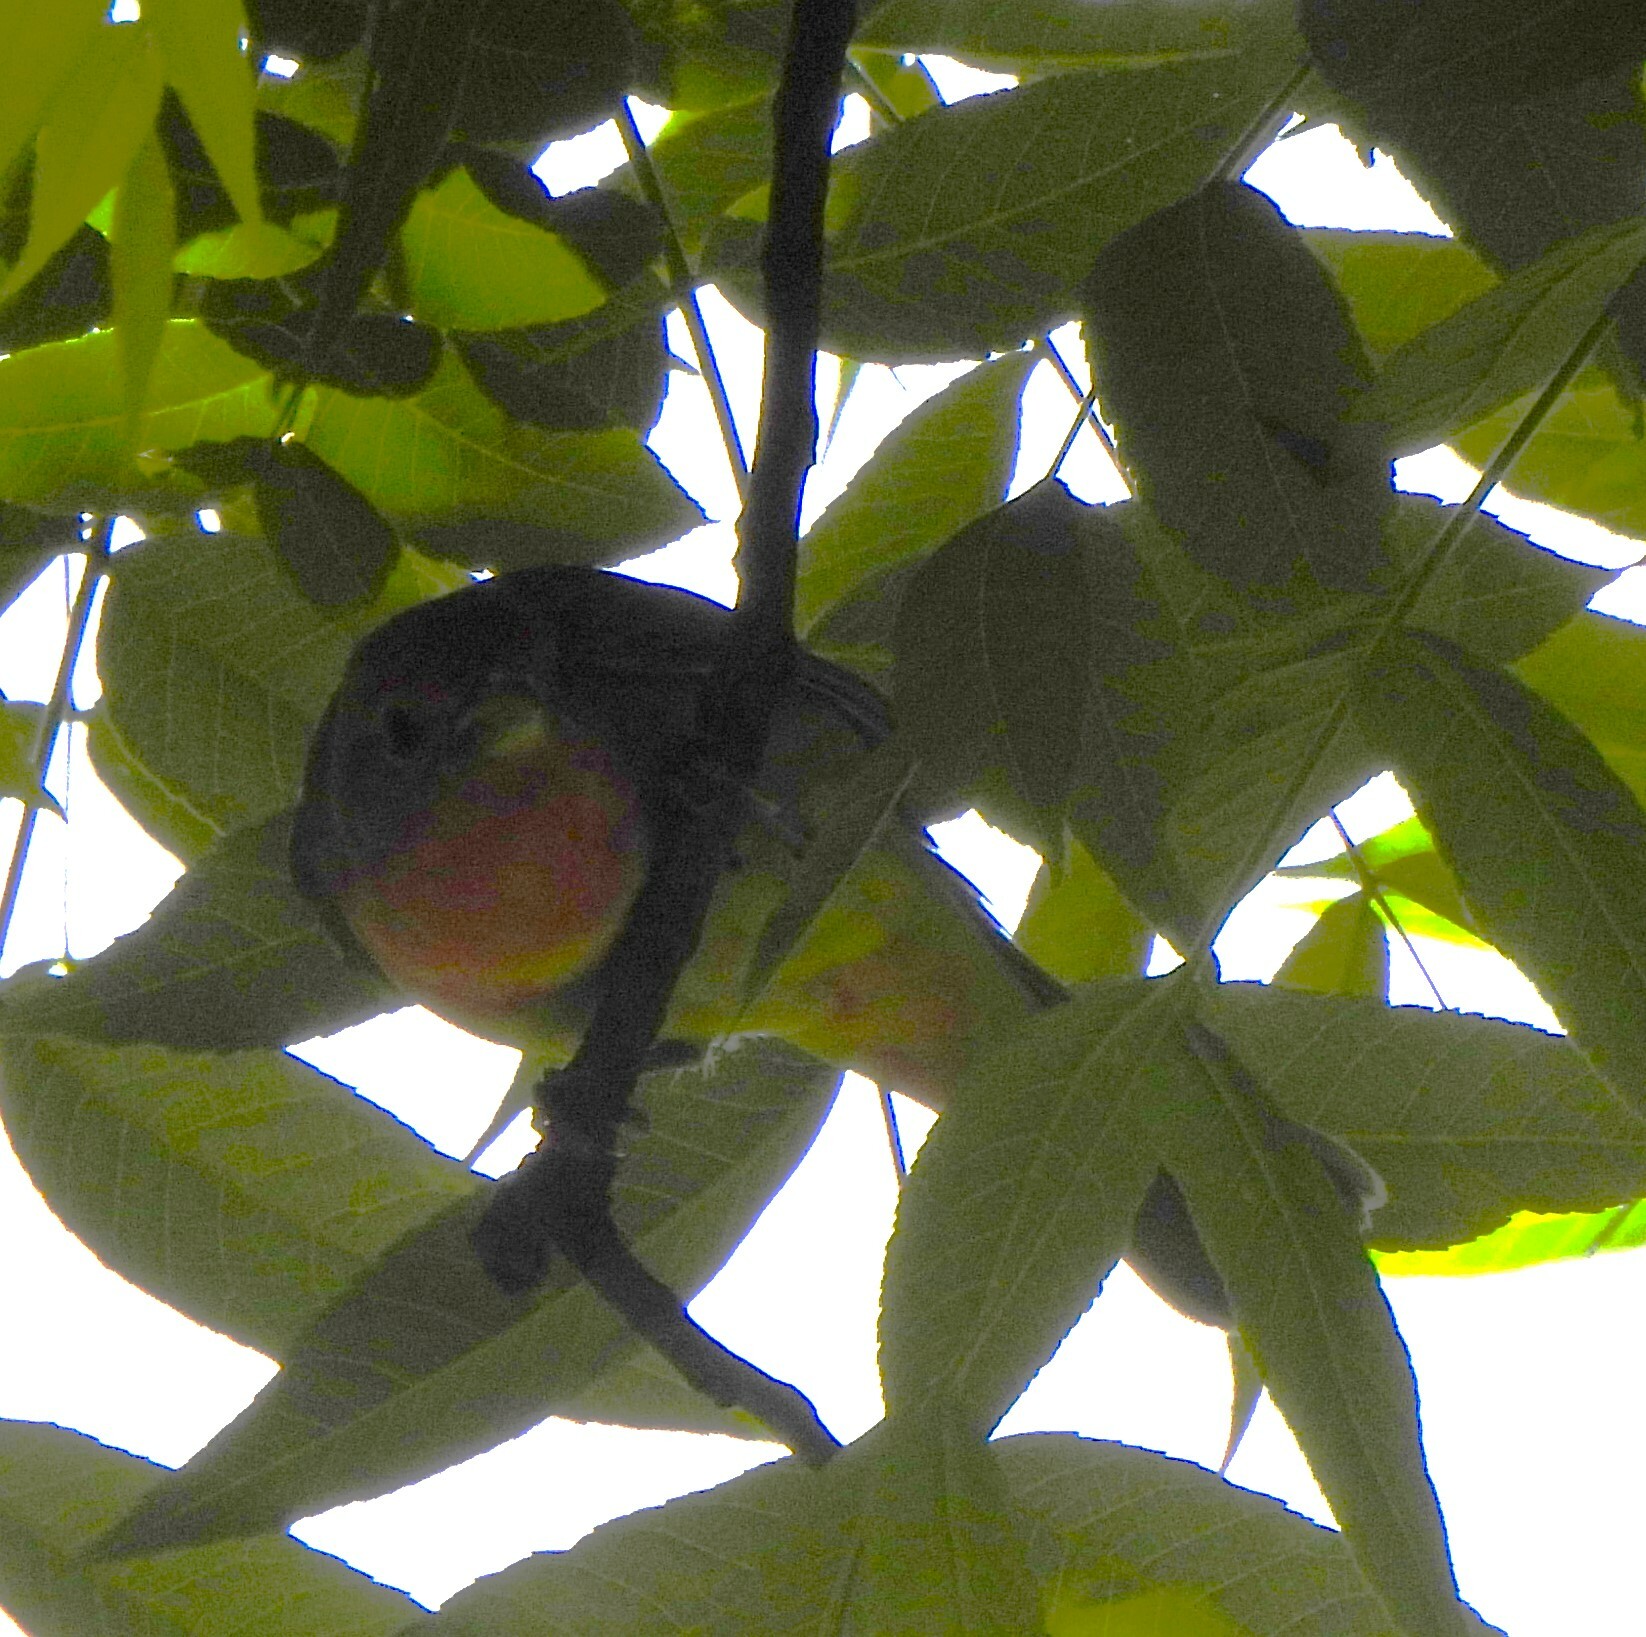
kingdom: Animalia
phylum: Chordata
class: Aves
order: Passeriformes
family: Cardinalidae
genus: Piranga
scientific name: Piranga rubra
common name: Summer tanager
